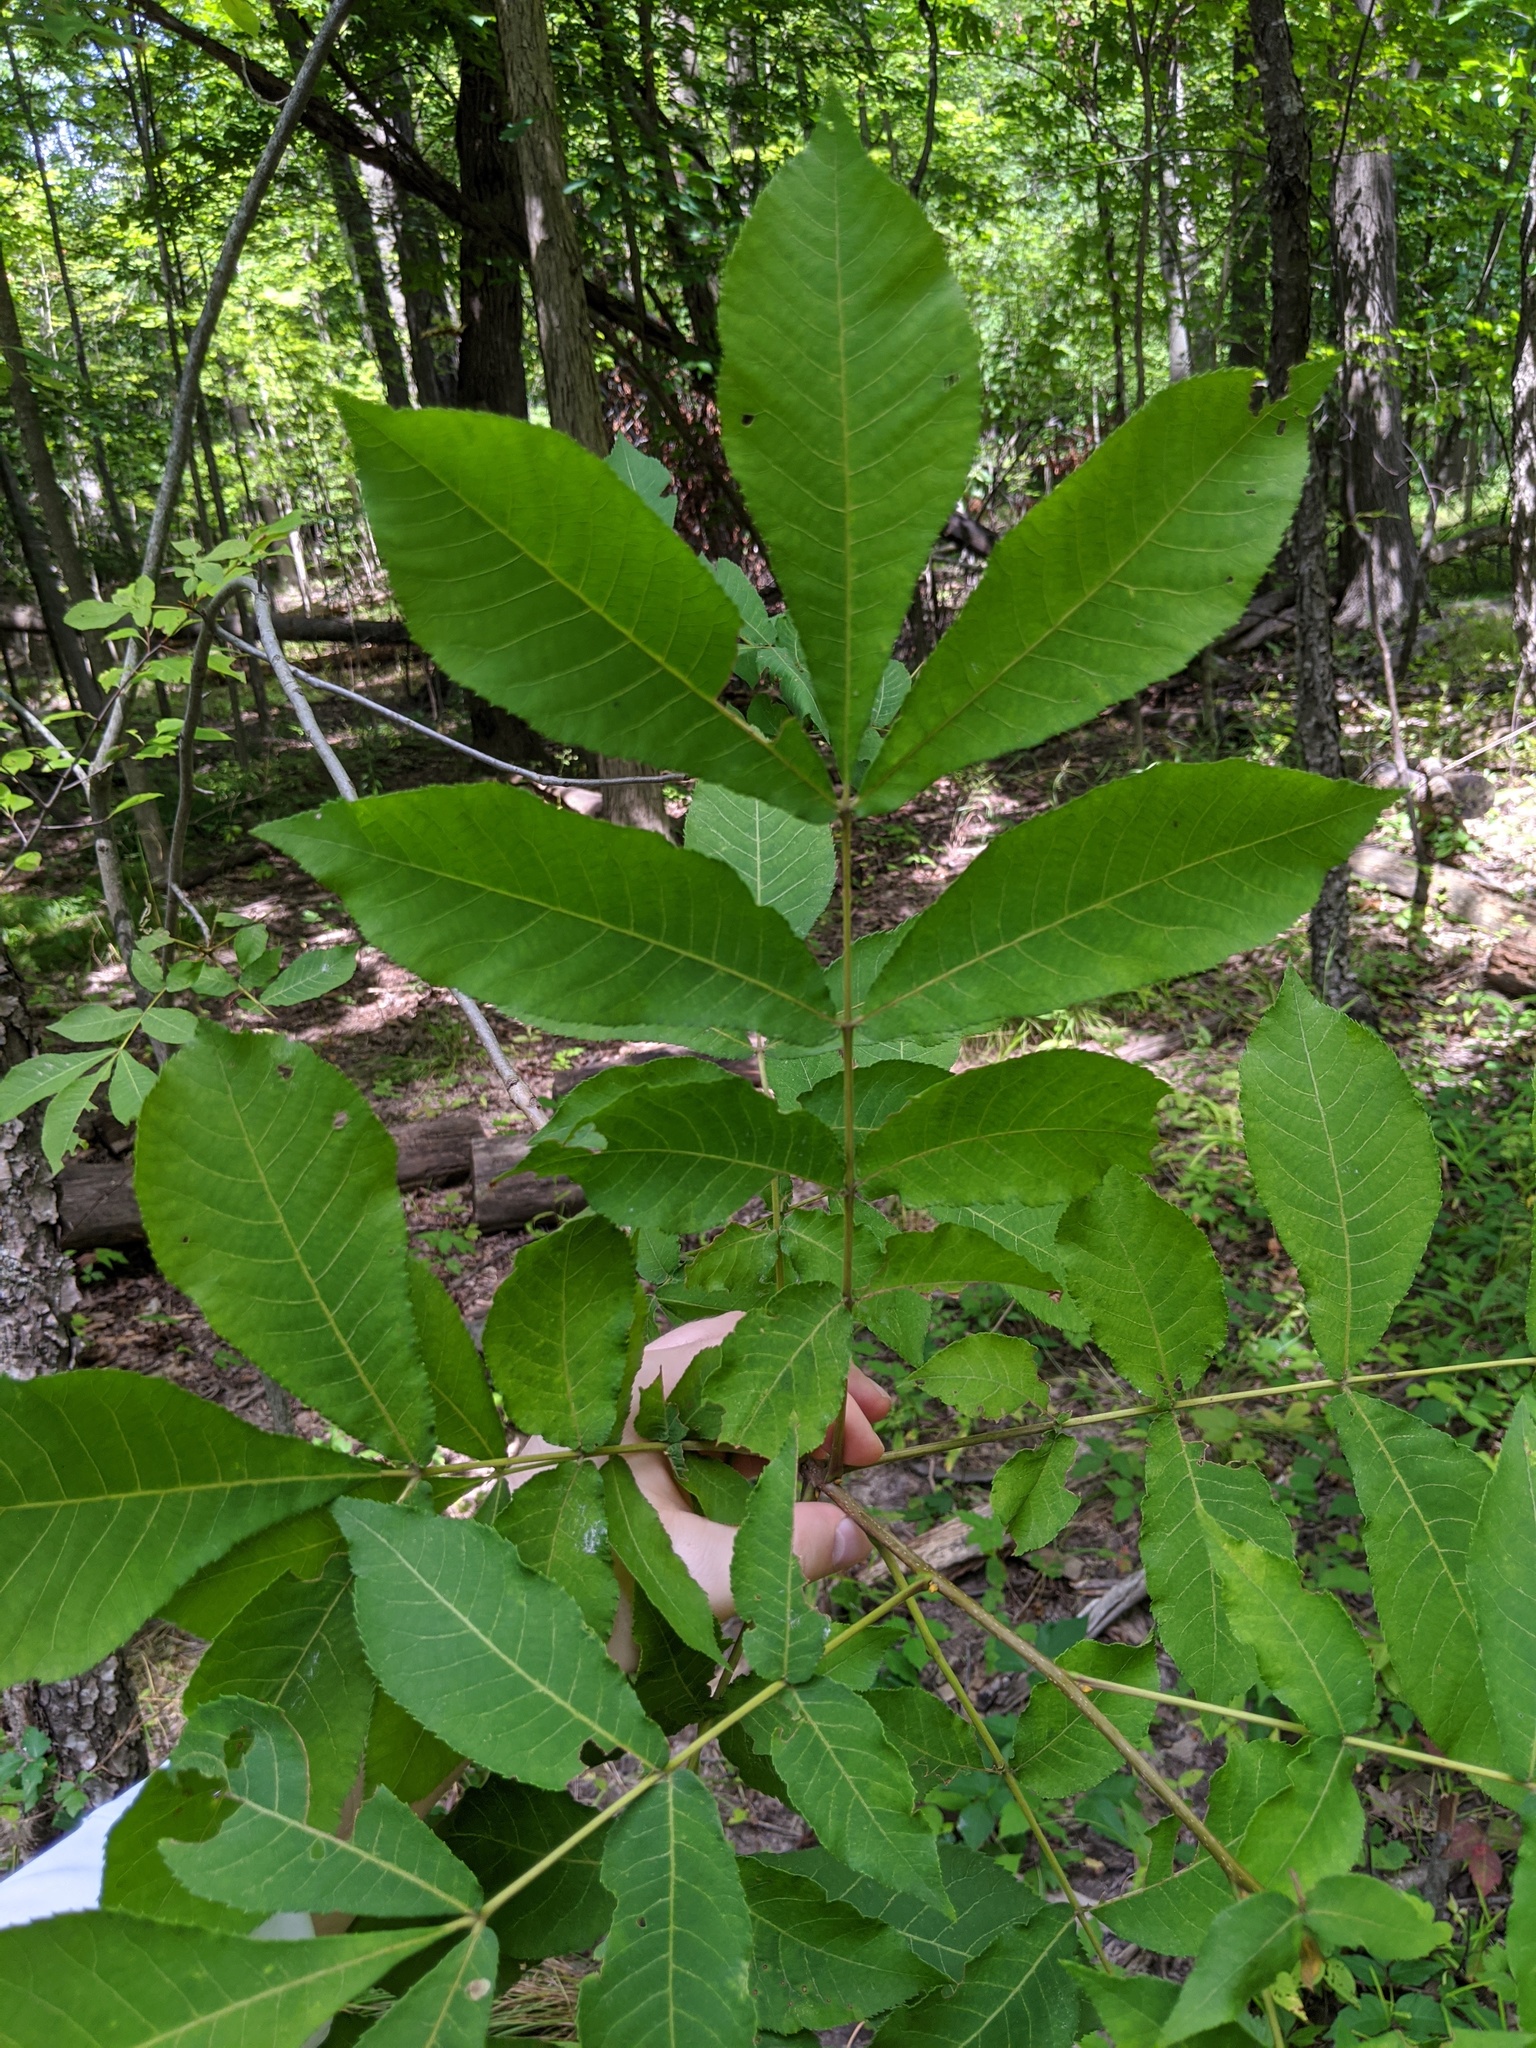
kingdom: Plantae
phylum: Tracheophyta
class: Magnoliopsida
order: Fagales
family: Juglandaceae
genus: Carya
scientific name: Carya cordiformis
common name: Bitternut hickory
